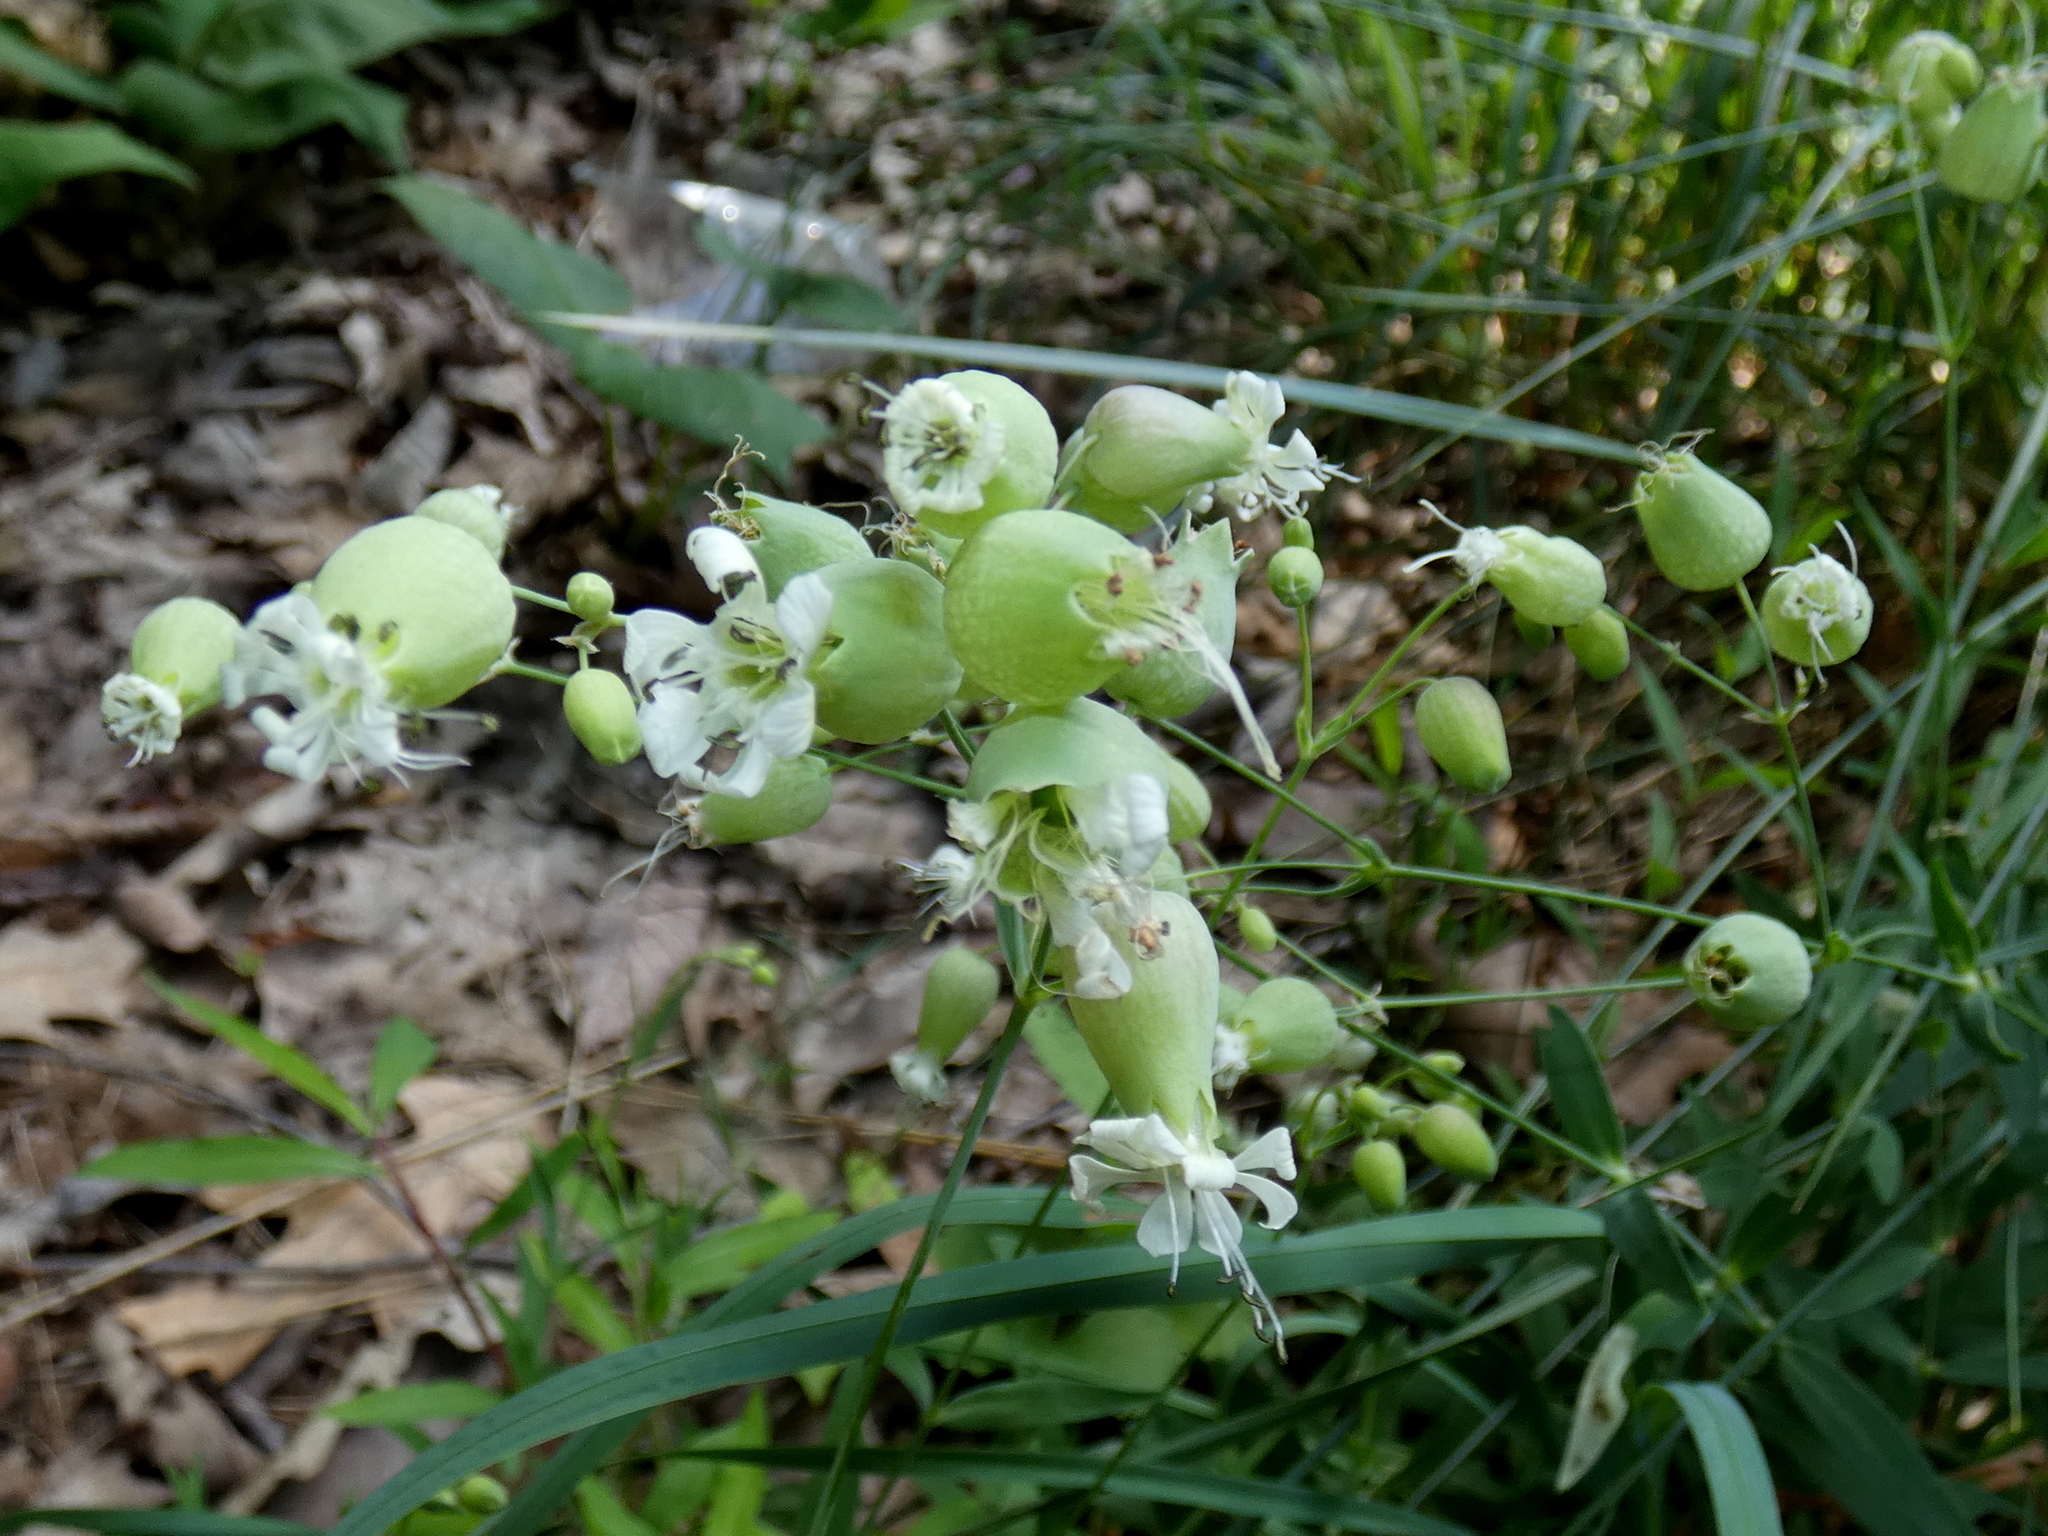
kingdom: Plantae
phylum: Tracheophyta
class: Magnoliopsida
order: Caryophyllales
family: Caryophyllaceae
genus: Silene
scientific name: Silene vulgaris
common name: Bladder campion
